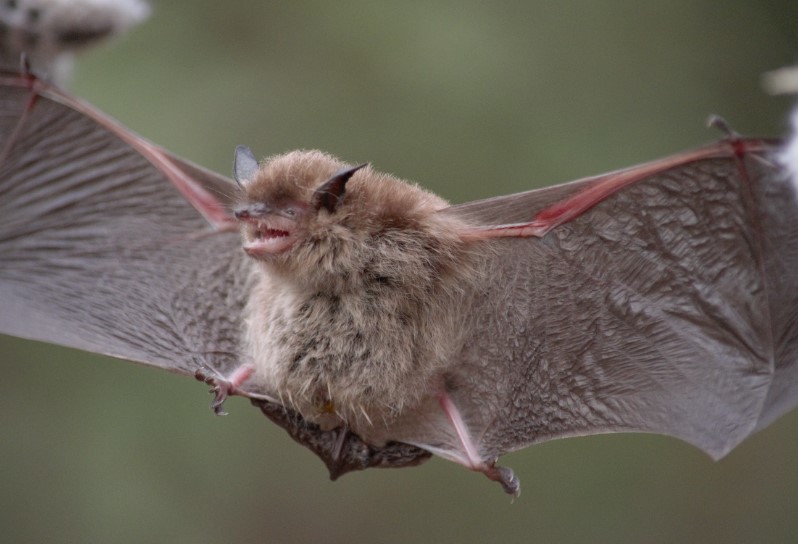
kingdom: Animalia
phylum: Chordata
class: Mammalia
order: Chiroptera
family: Vespertilionidae
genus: Myotis
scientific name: Myotis chiloensis
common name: Chilean myotis
